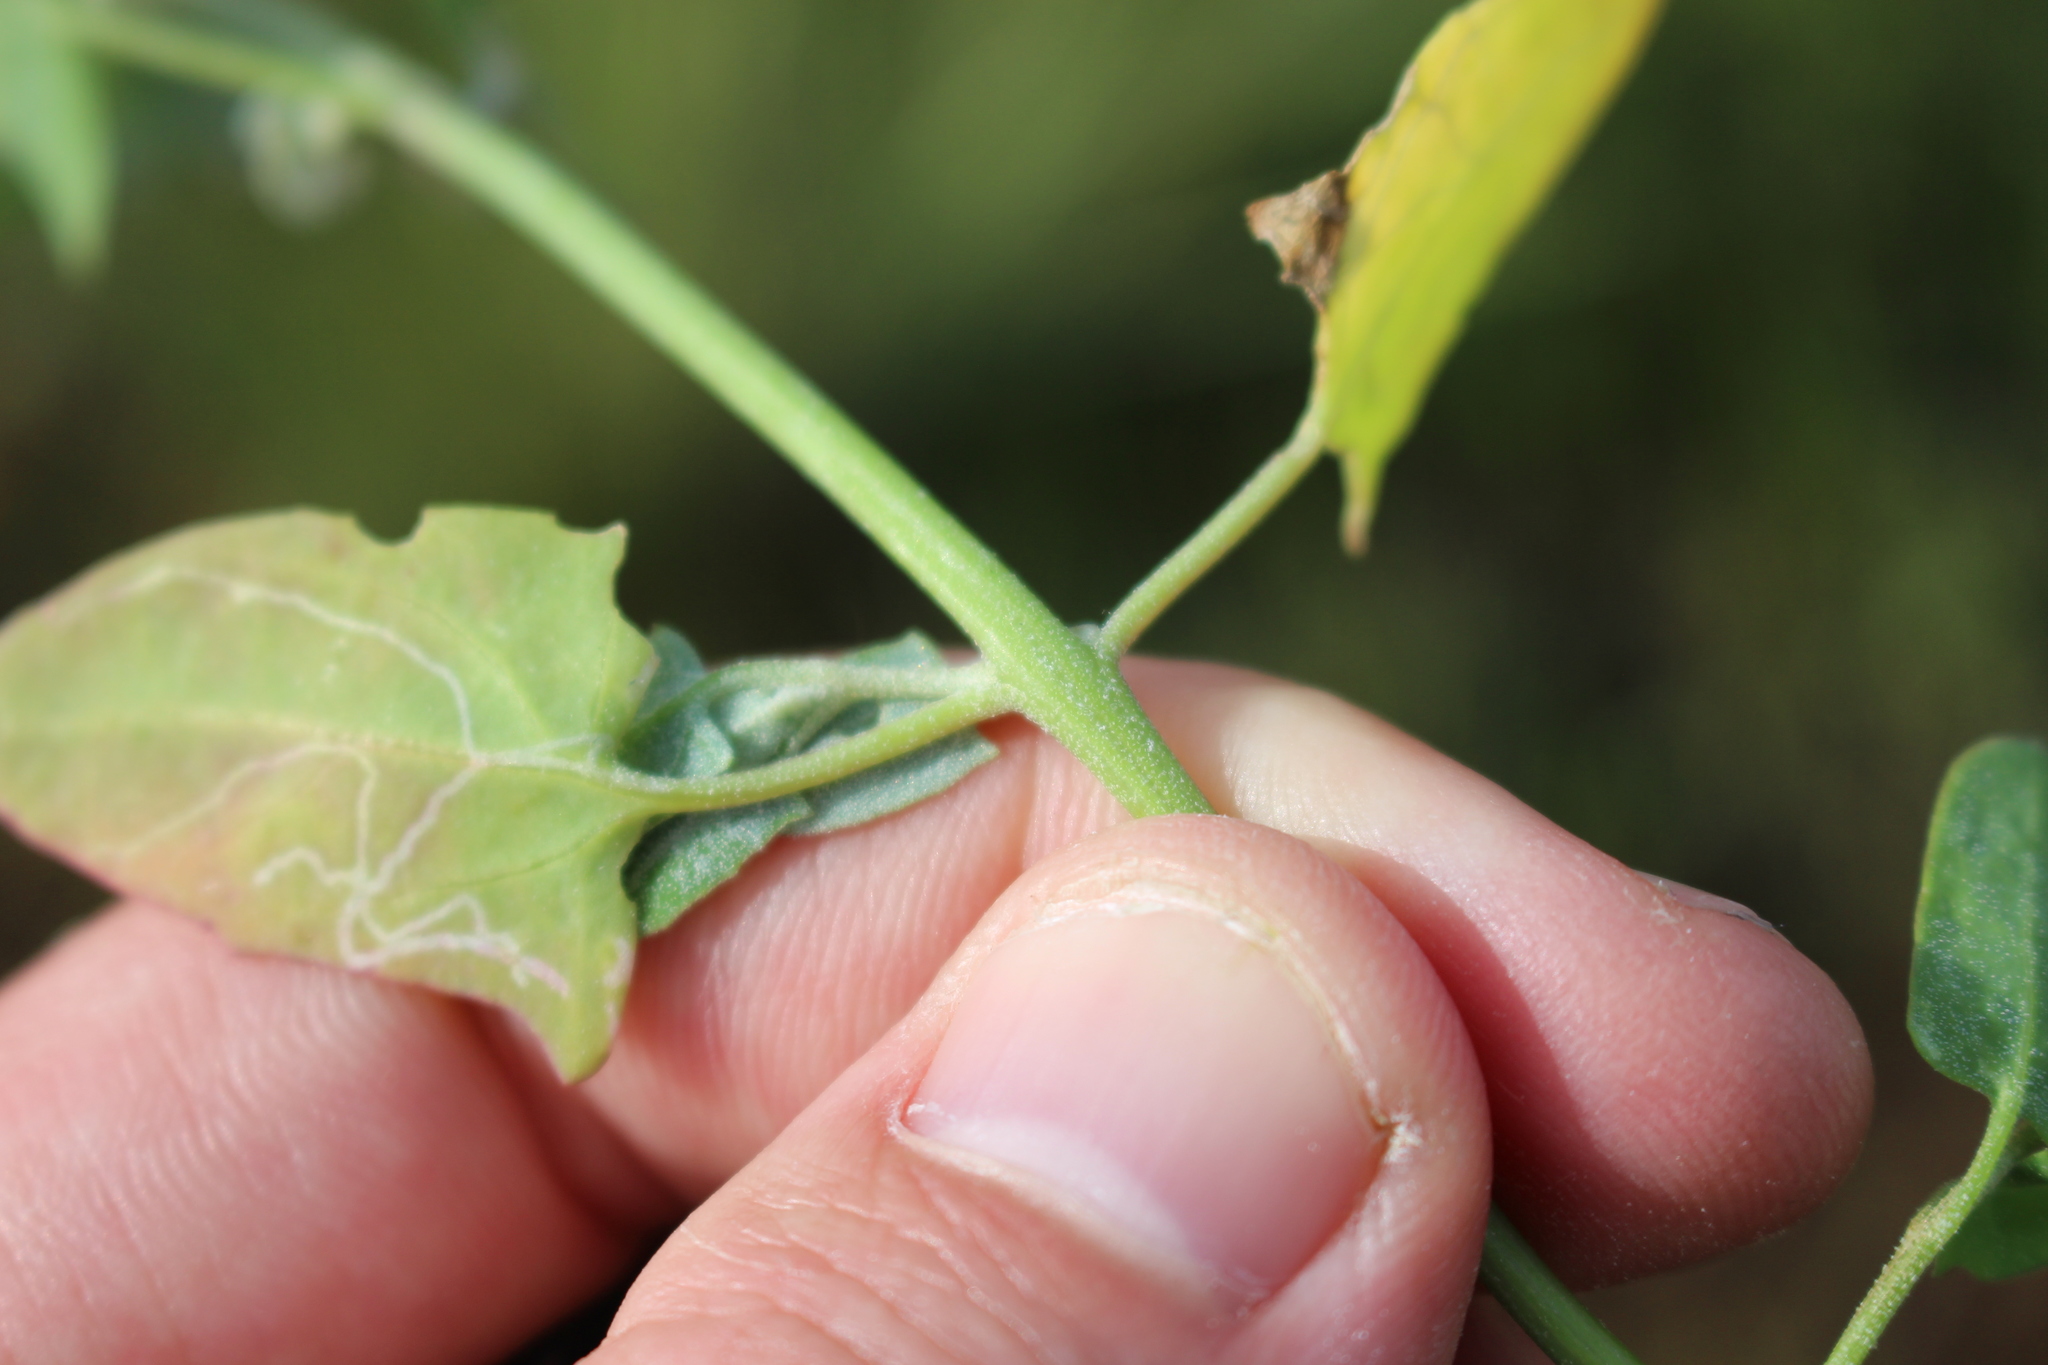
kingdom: Plantae
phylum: Tracheophyta
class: Magnoliopsida
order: Caryophyllales
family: Amaranthaceae
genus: Atriplex
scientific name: Atriplex prostrata
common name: Spear-leaved orache
